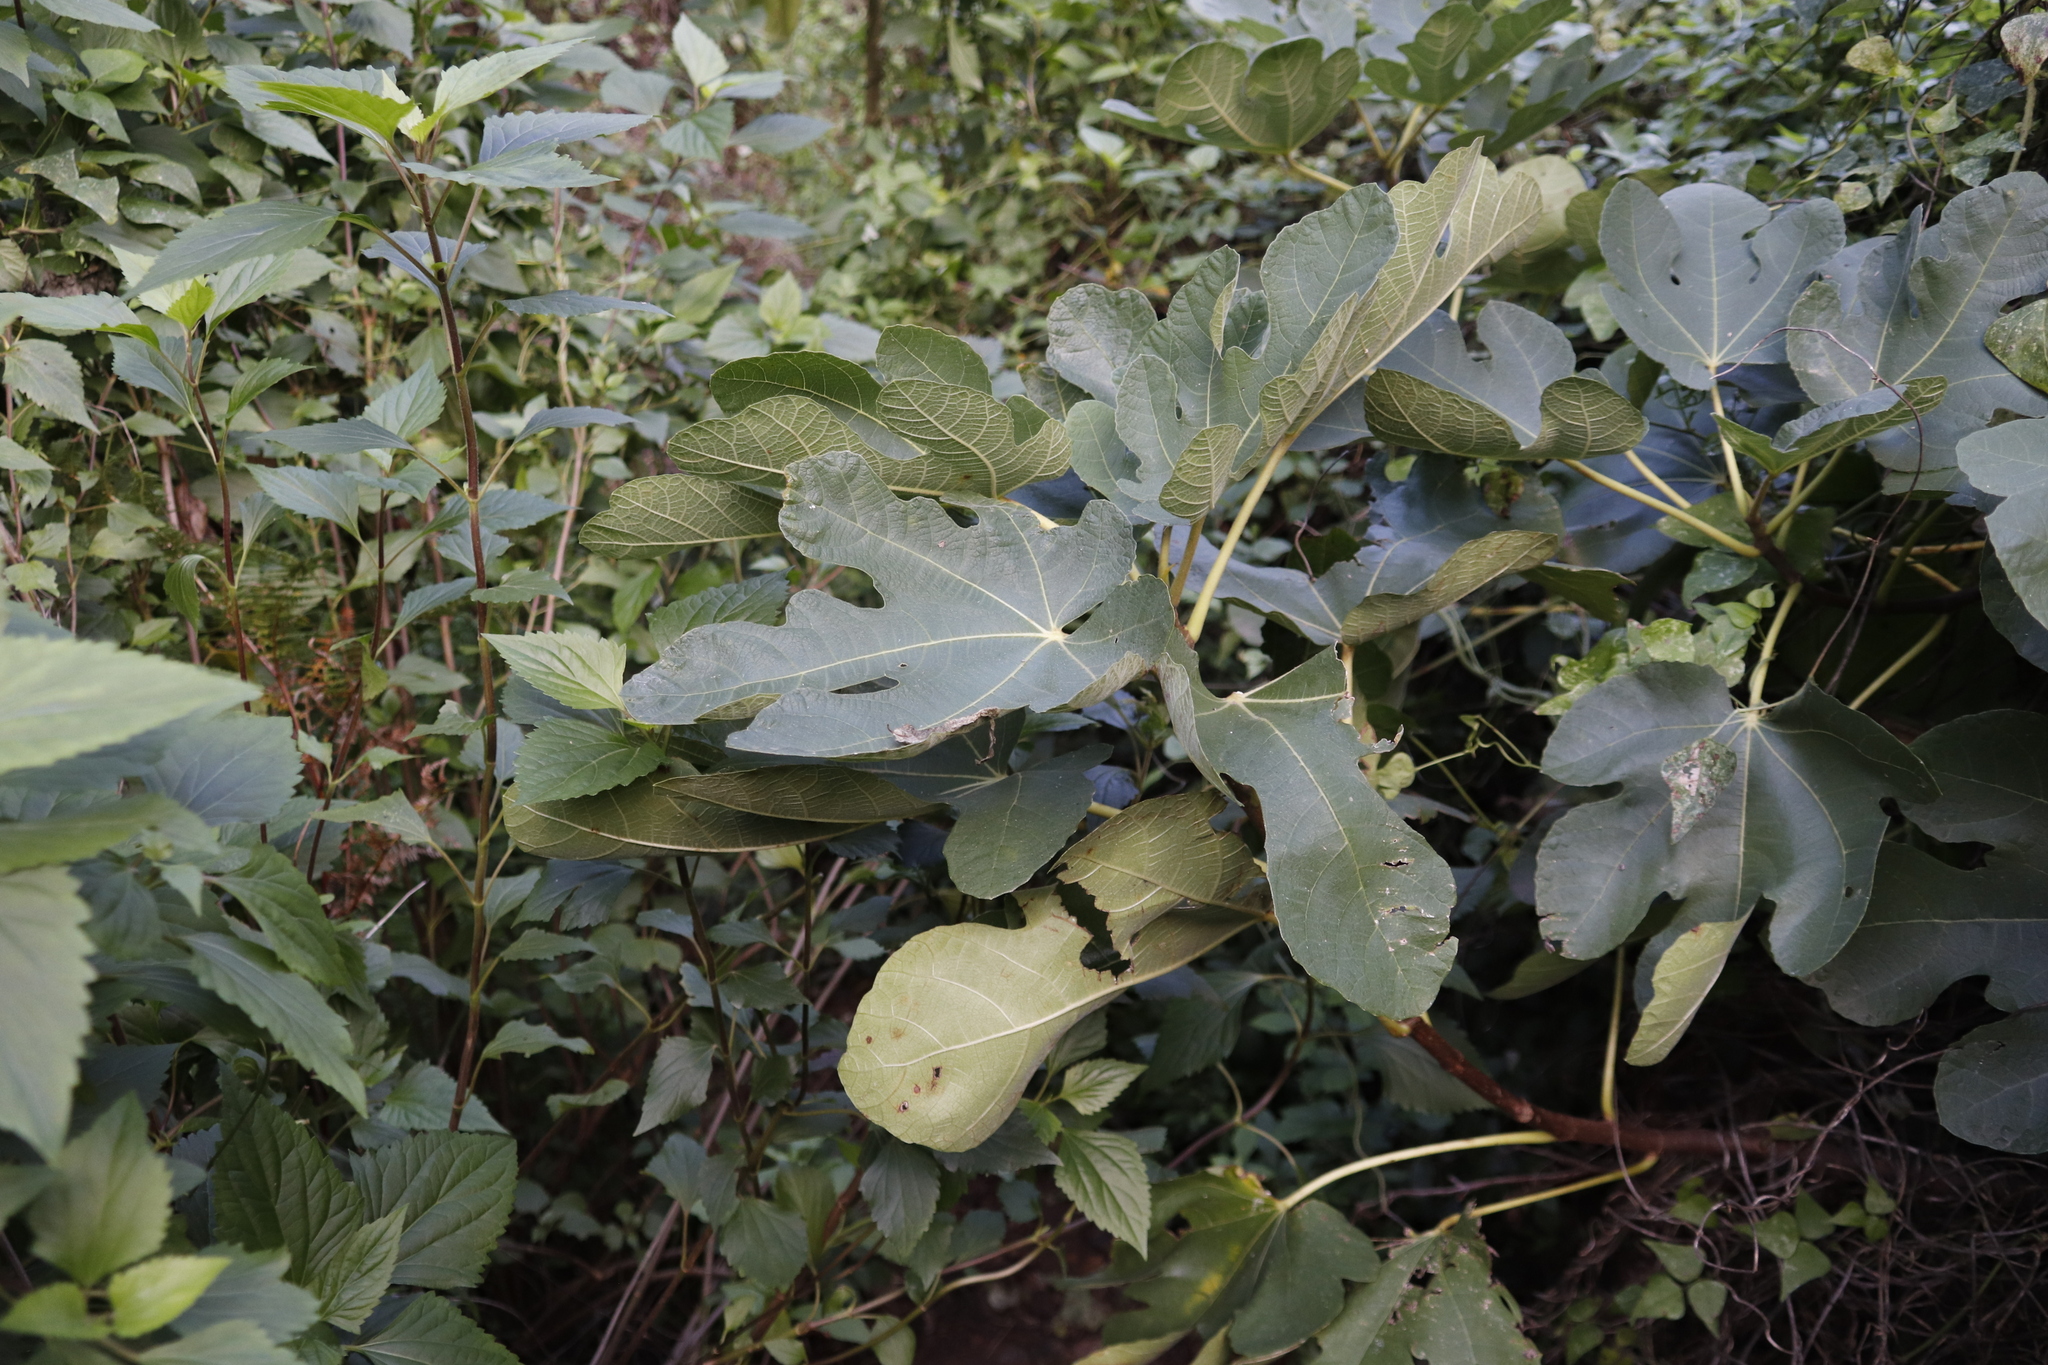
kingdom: Plantae
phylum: Tracheophyta
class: Magnoliopsida
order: Rosales
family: Moraceae
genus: Ficus
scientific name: Ficus carica
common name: Fig
